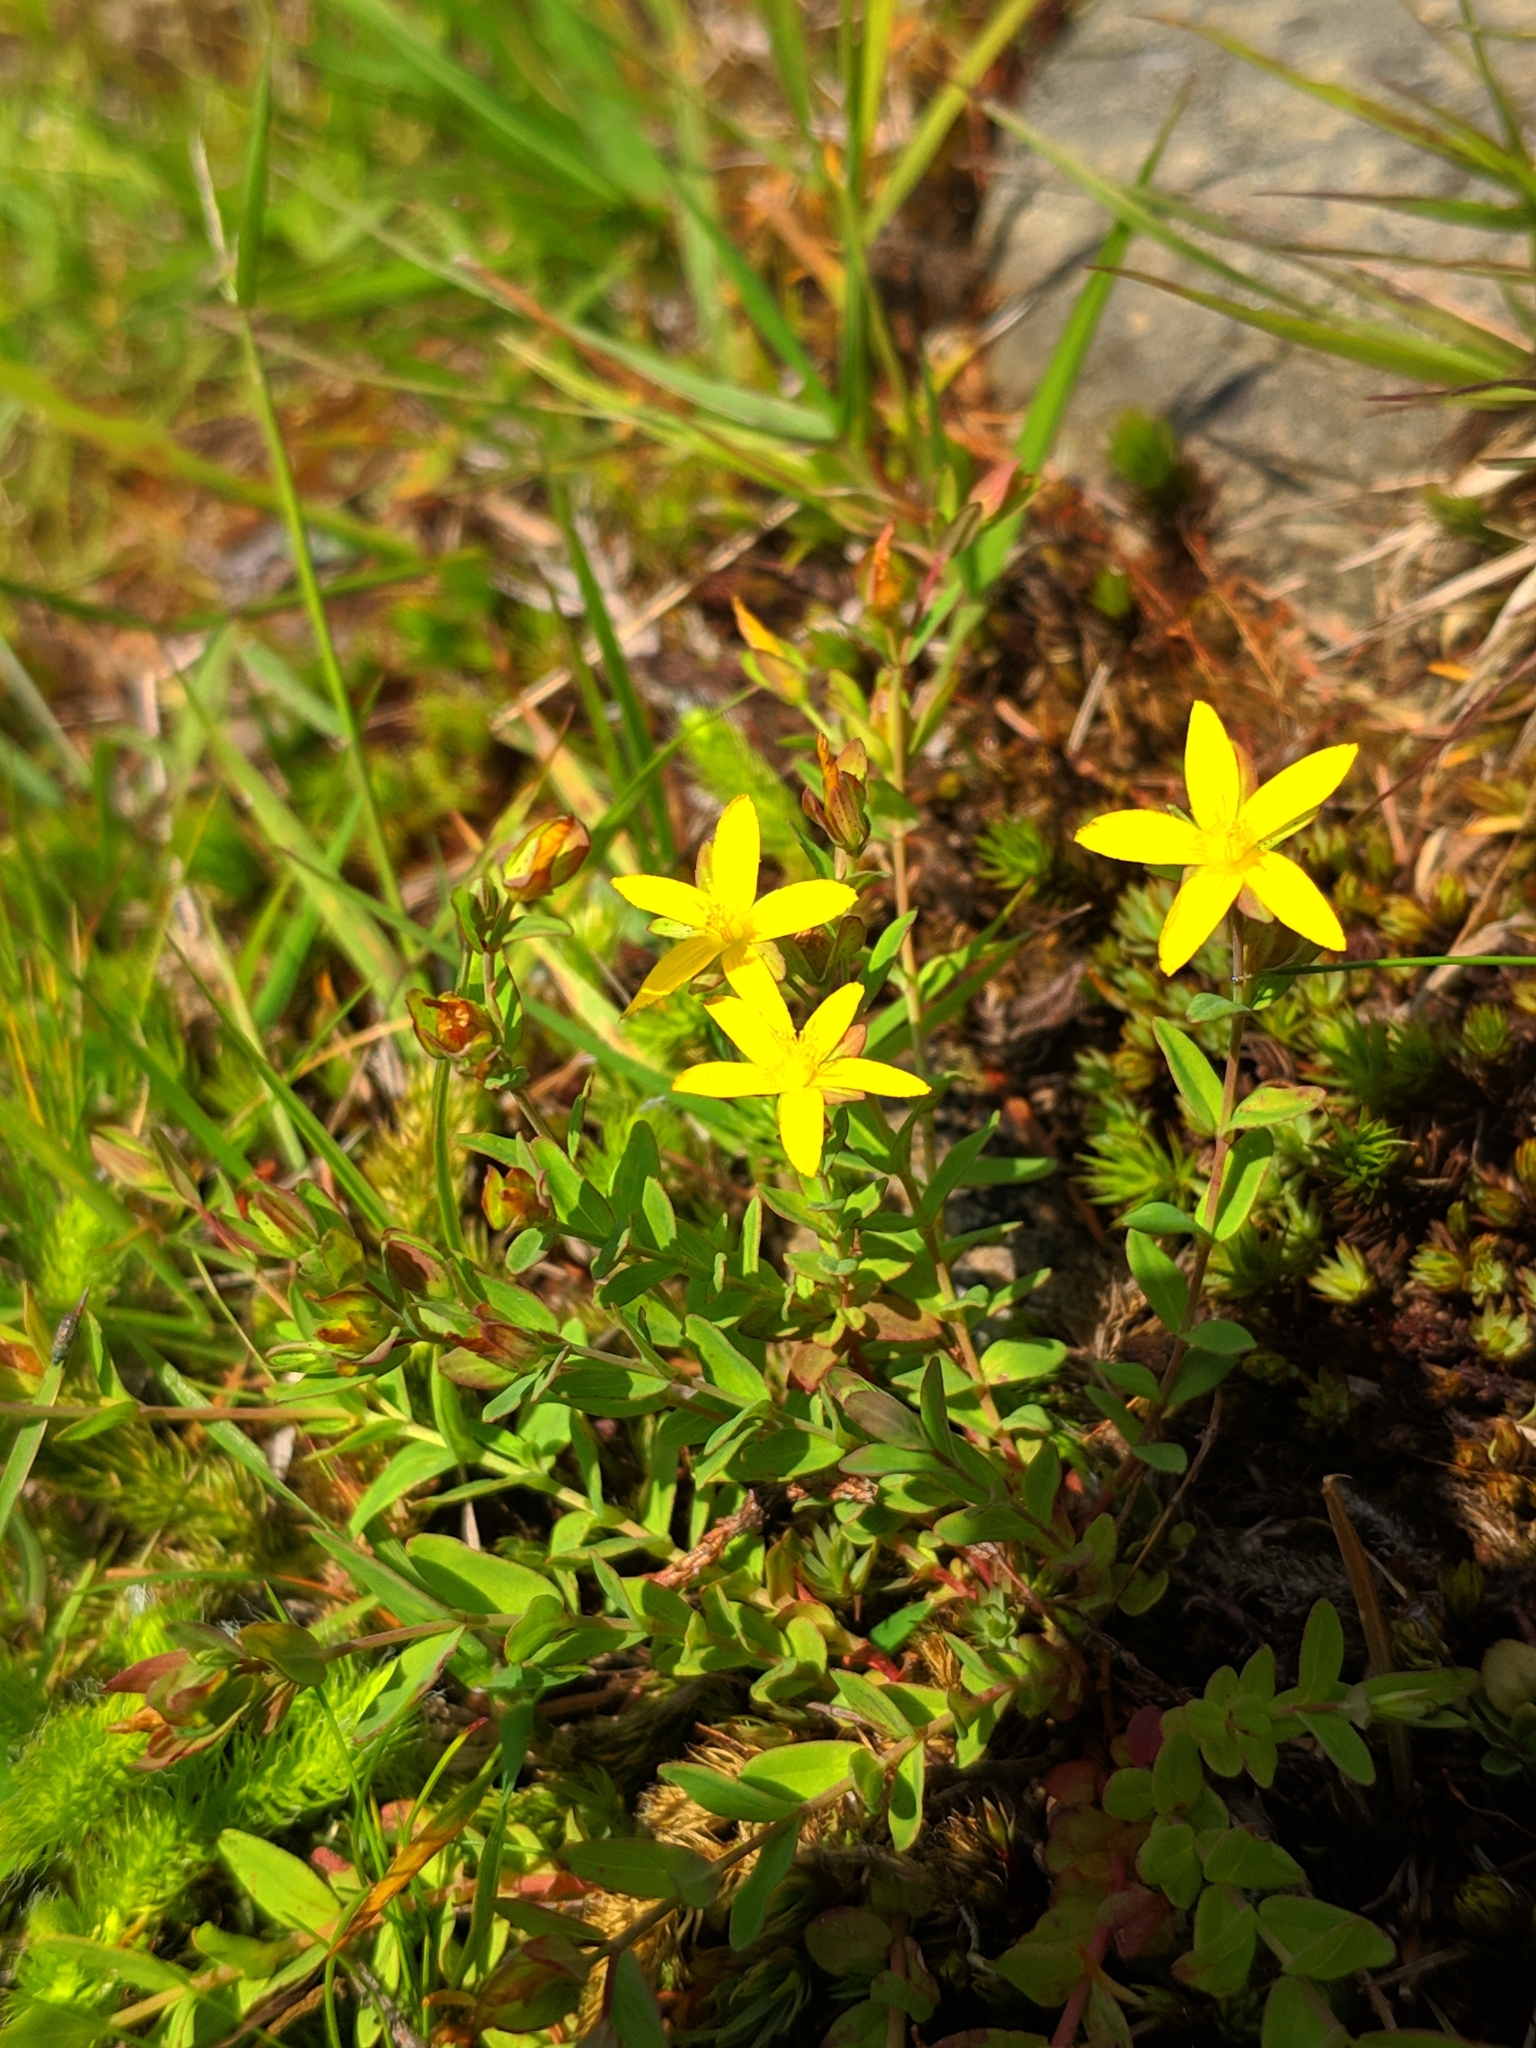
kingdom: Plantae
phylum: Tracheophyta
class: Magnoliopsida
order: Malpighiales
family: Hypericaceae
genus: Hypericum
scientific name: Hypericum humifusum
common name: Trailing st. john's-wort
